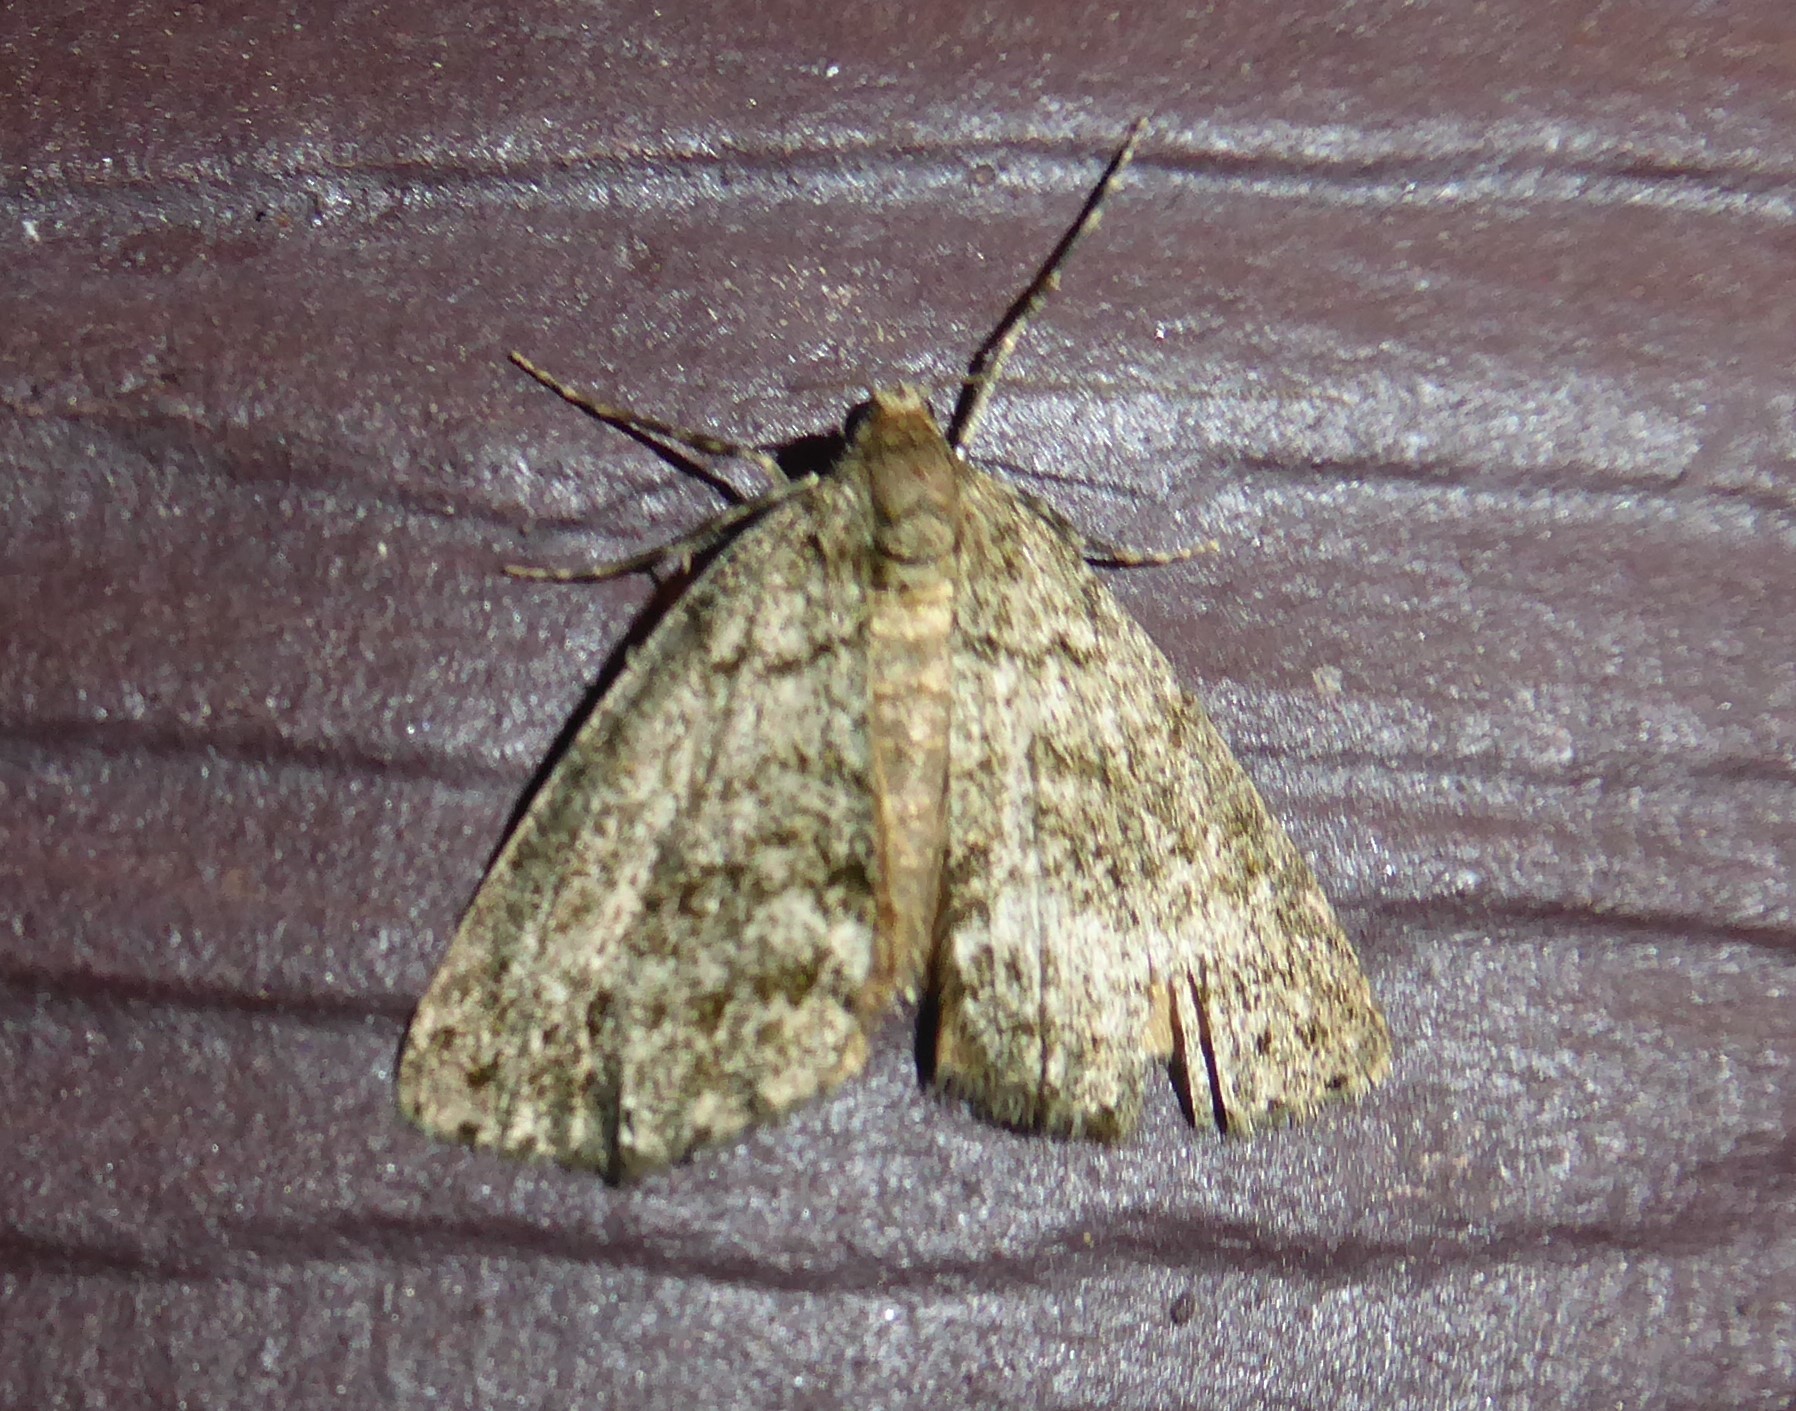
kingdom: Animalia
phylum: Arthropoda
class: Insecta
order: Lepidoptera
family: Geometridae
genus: Pseudocoremia
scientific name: Pseudocoremia indistincta
